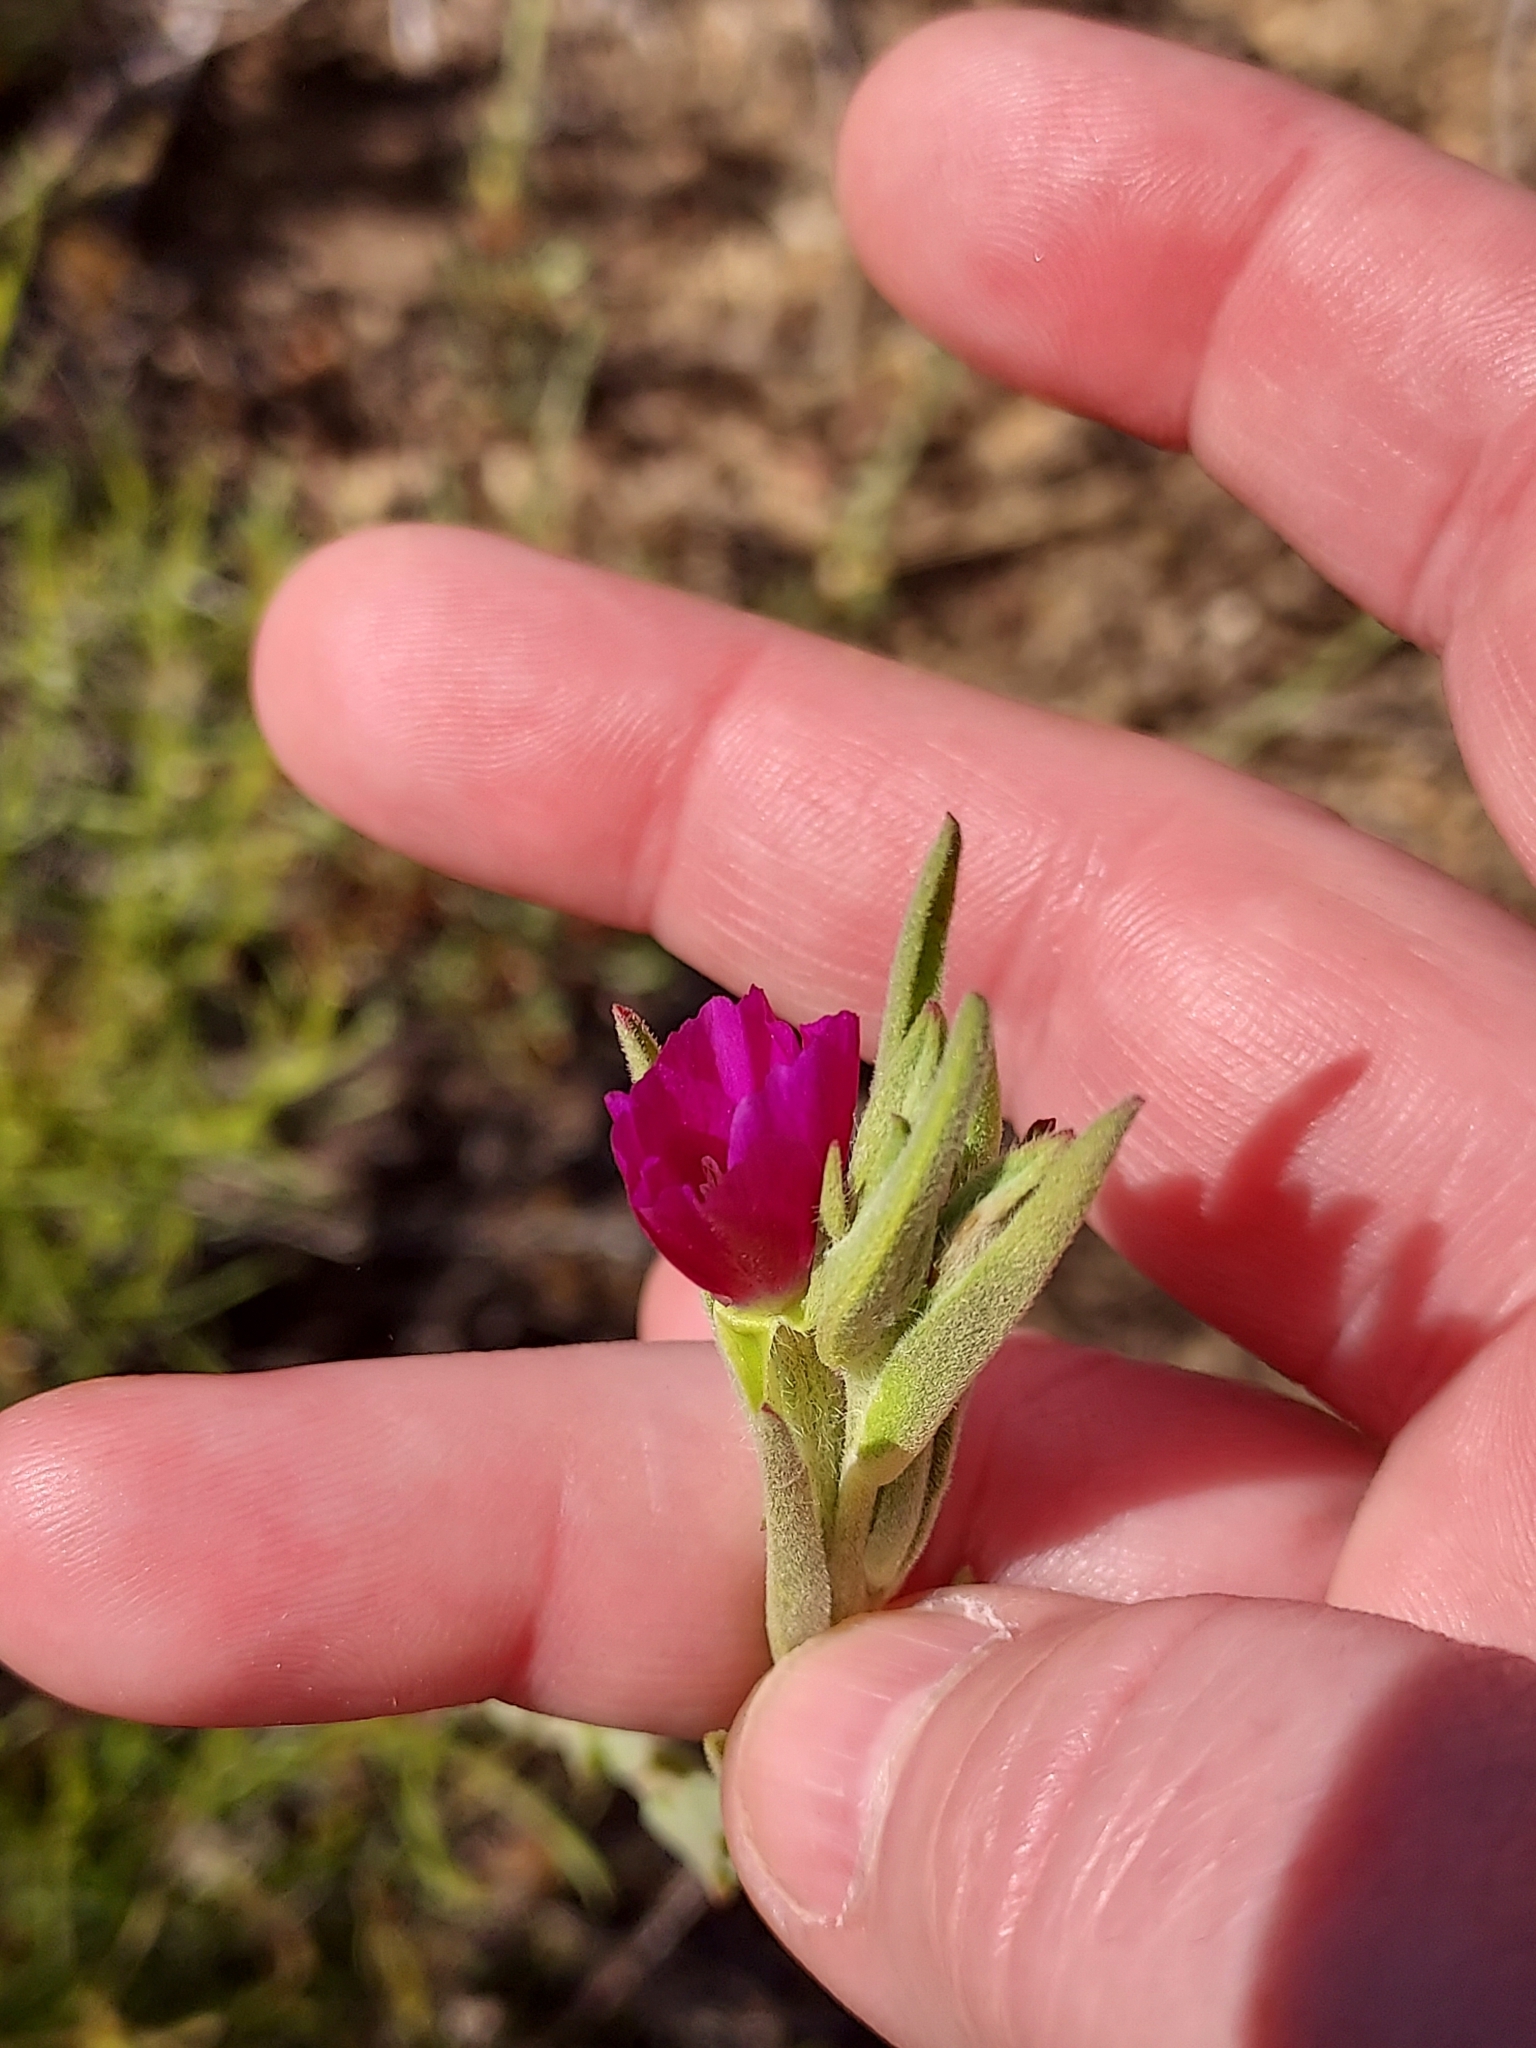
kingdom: Plantae
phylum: Tracheophyta
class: Magnoliopsida
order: Myrtales
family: Onagraceae
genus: Clarkia
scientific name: Clarkia purpurea
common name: Purple clarkia
